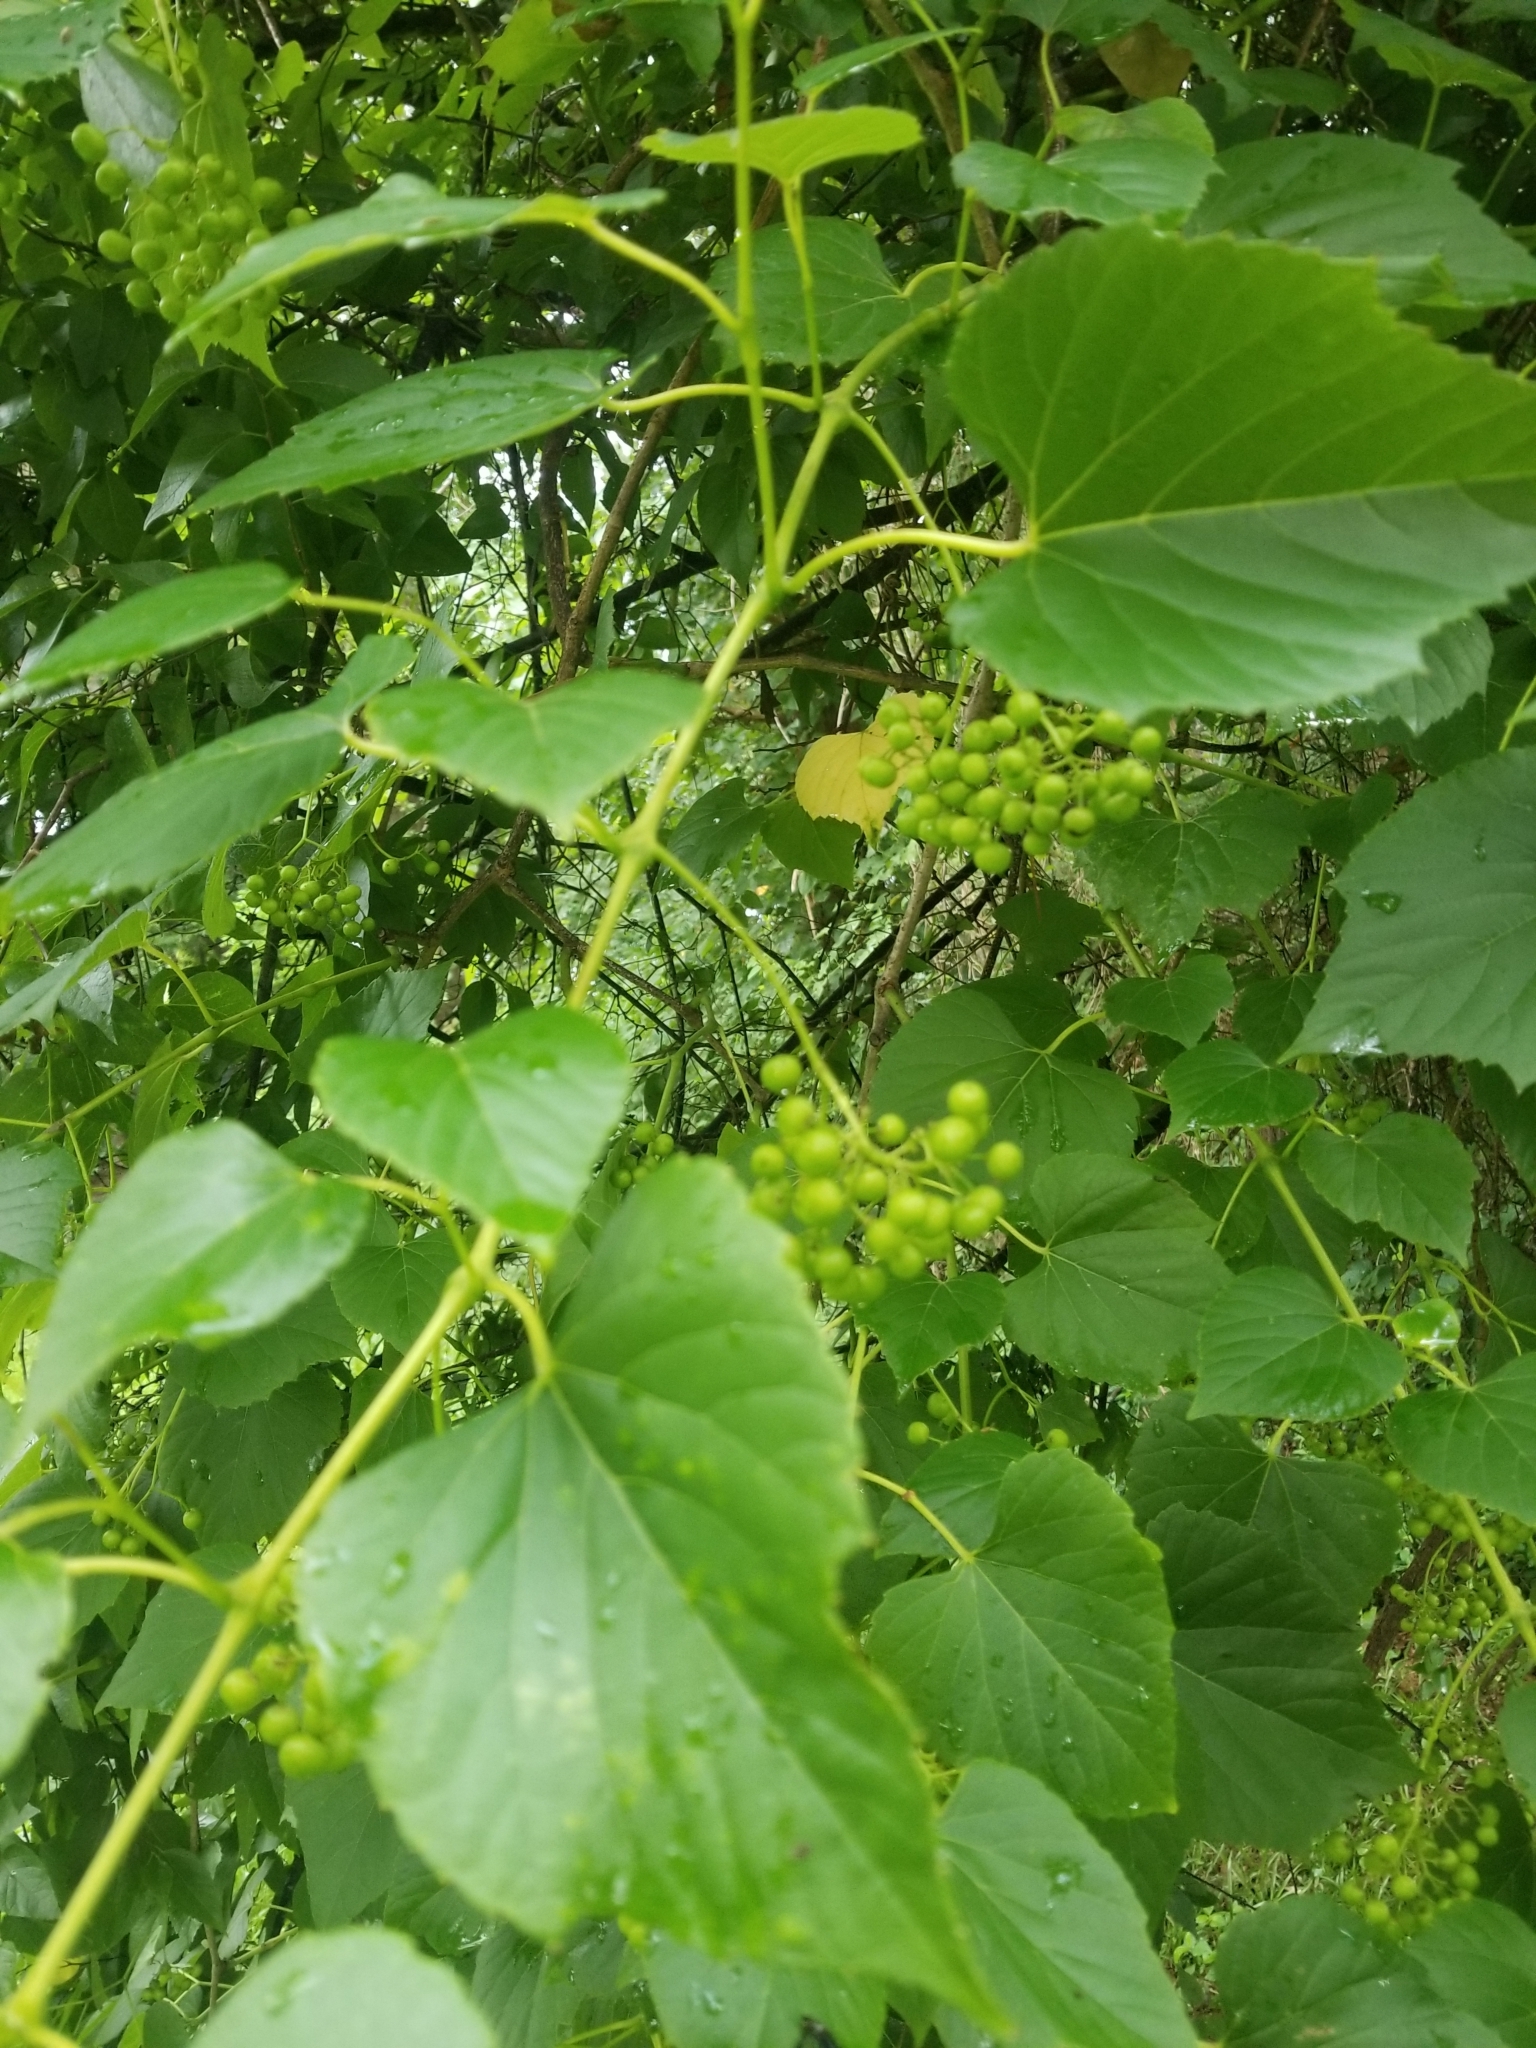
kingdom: Plantae
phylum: Tracheophyta
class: Magnoliopsida
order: Vitales
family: Vitaceae
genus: Ampelopsis
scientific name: Ampelopsis cordata
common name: Heart-leaf ampelopsis
